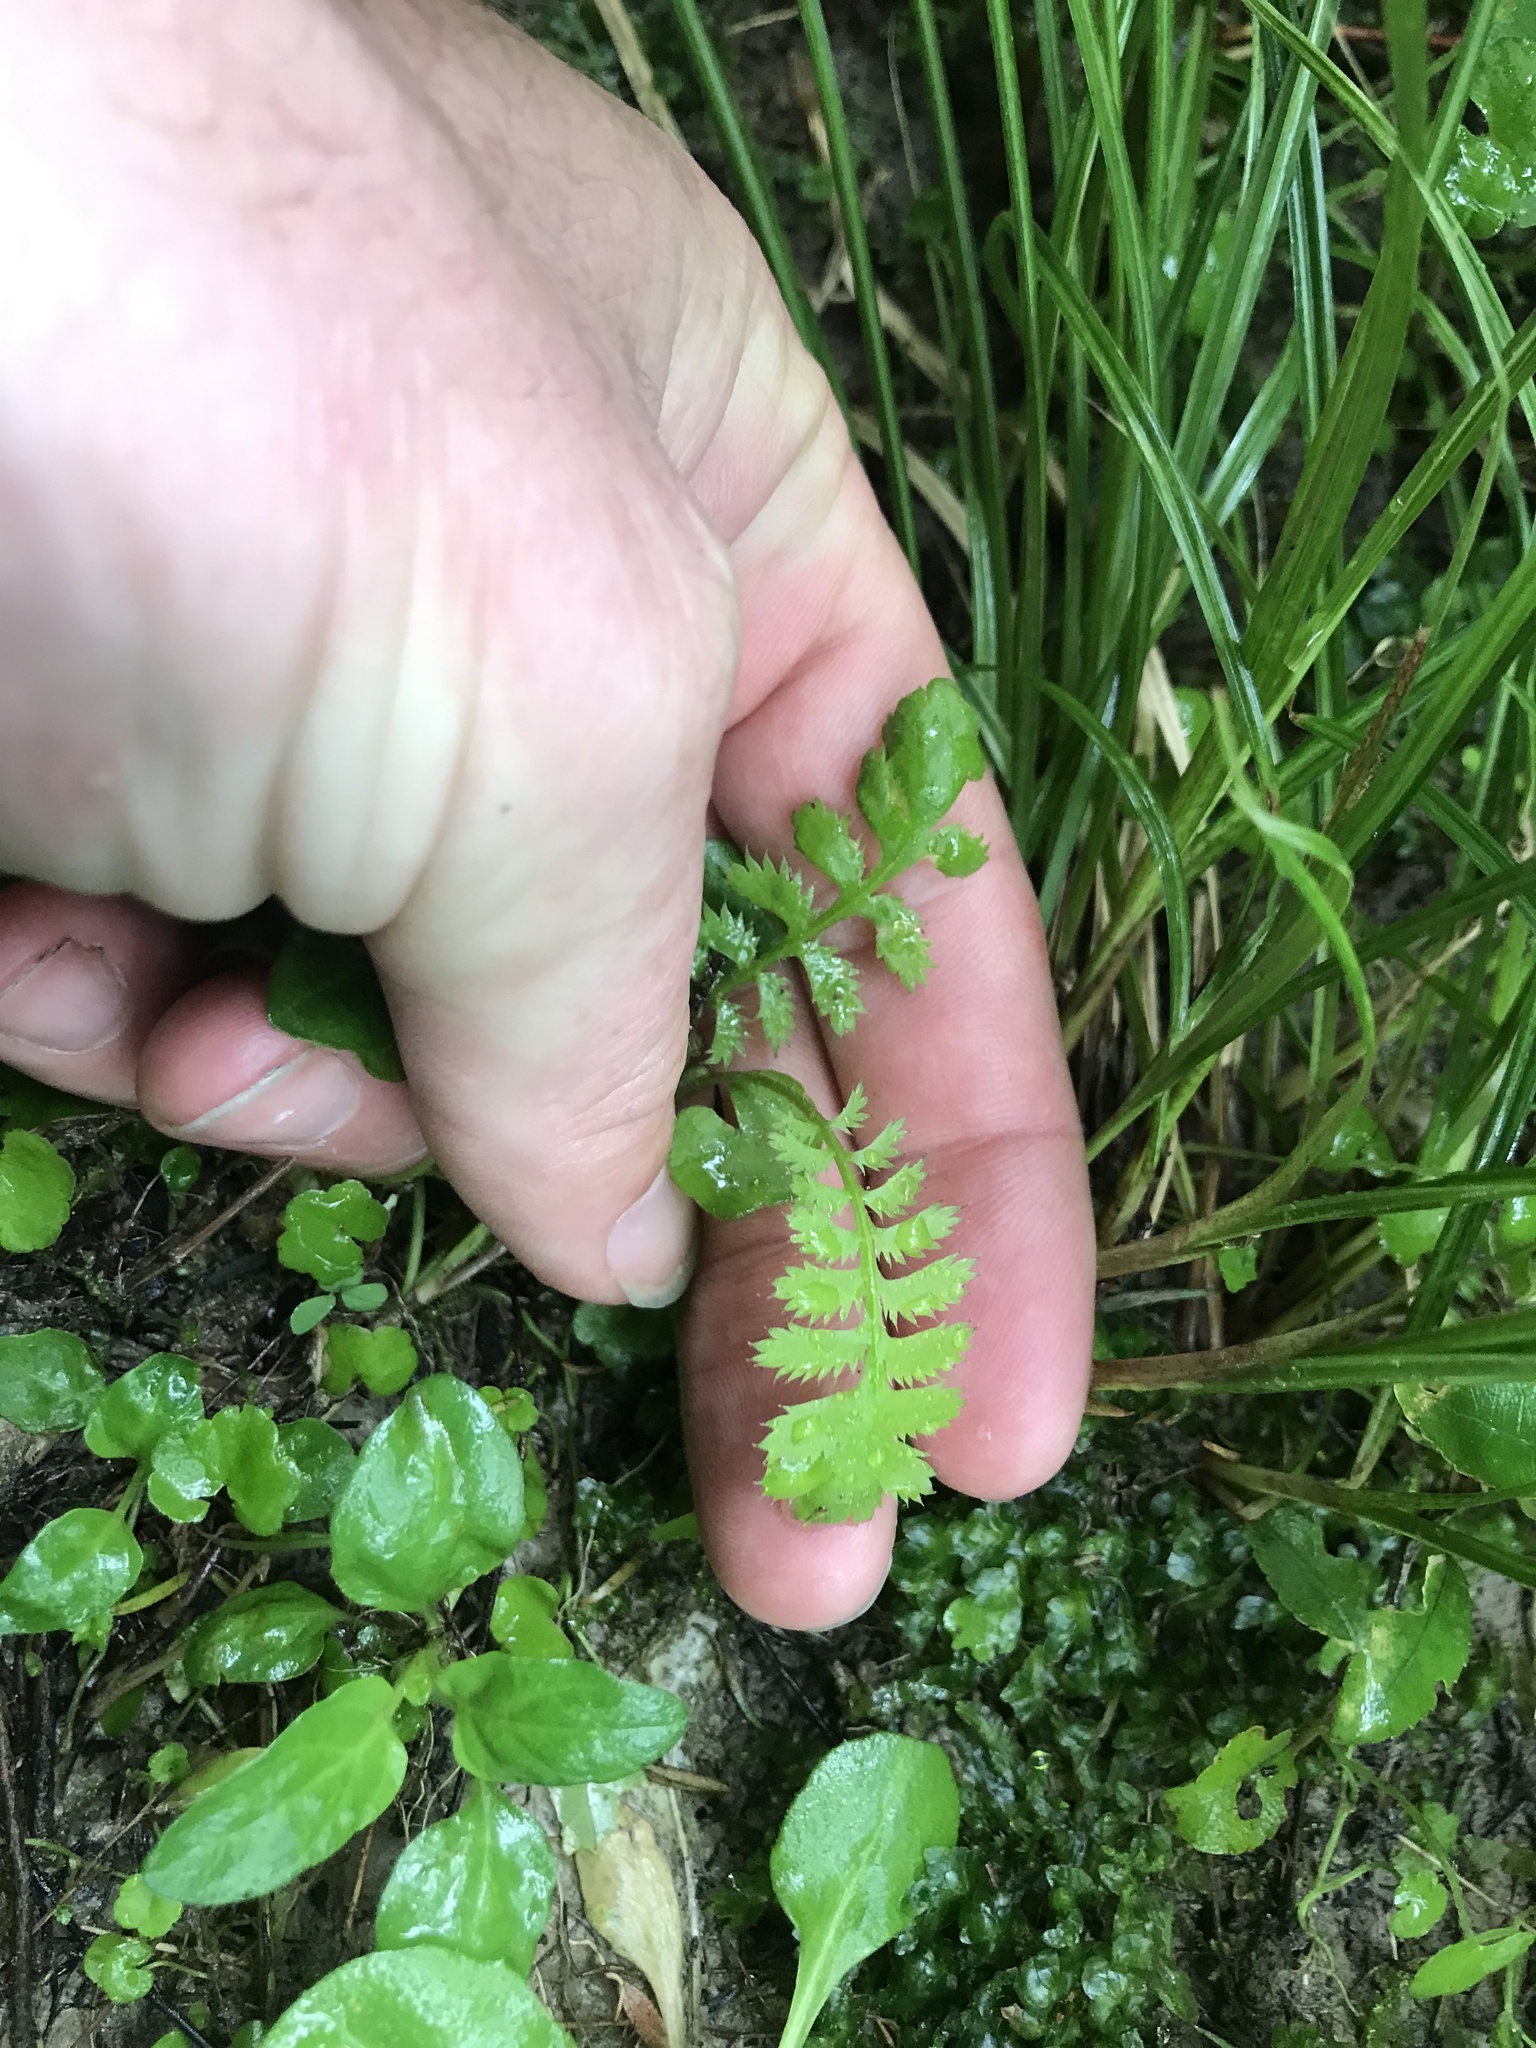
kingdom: Plantae
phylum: Tracheophyta
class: Magnoliopsida
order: Asterales
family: Asteraceae
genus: Leptinella
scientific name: Leptinella squalida
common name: New zealand brass-buttons
